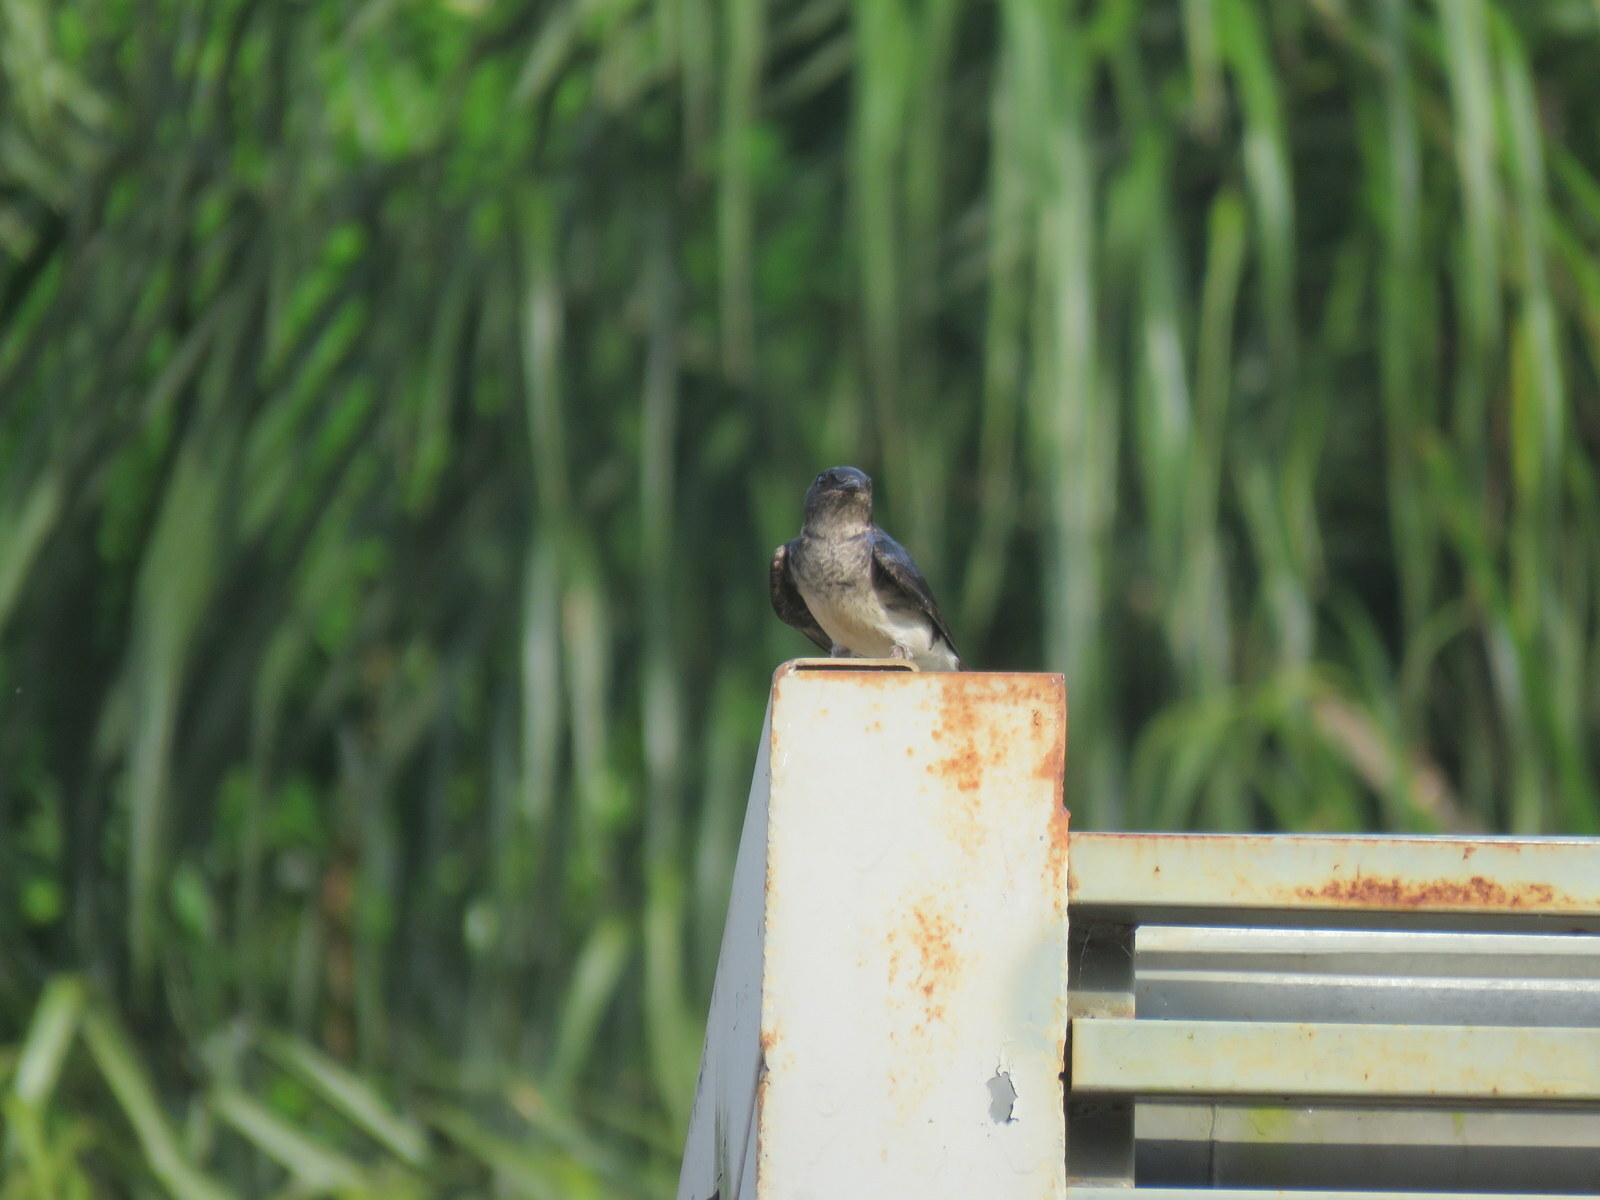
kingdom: Animalia
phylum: Chordata
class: Aves
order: Passeriformes
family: Hirundinidae
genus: Progne
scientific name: Progne chalybea
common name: Grey-breasted martin
